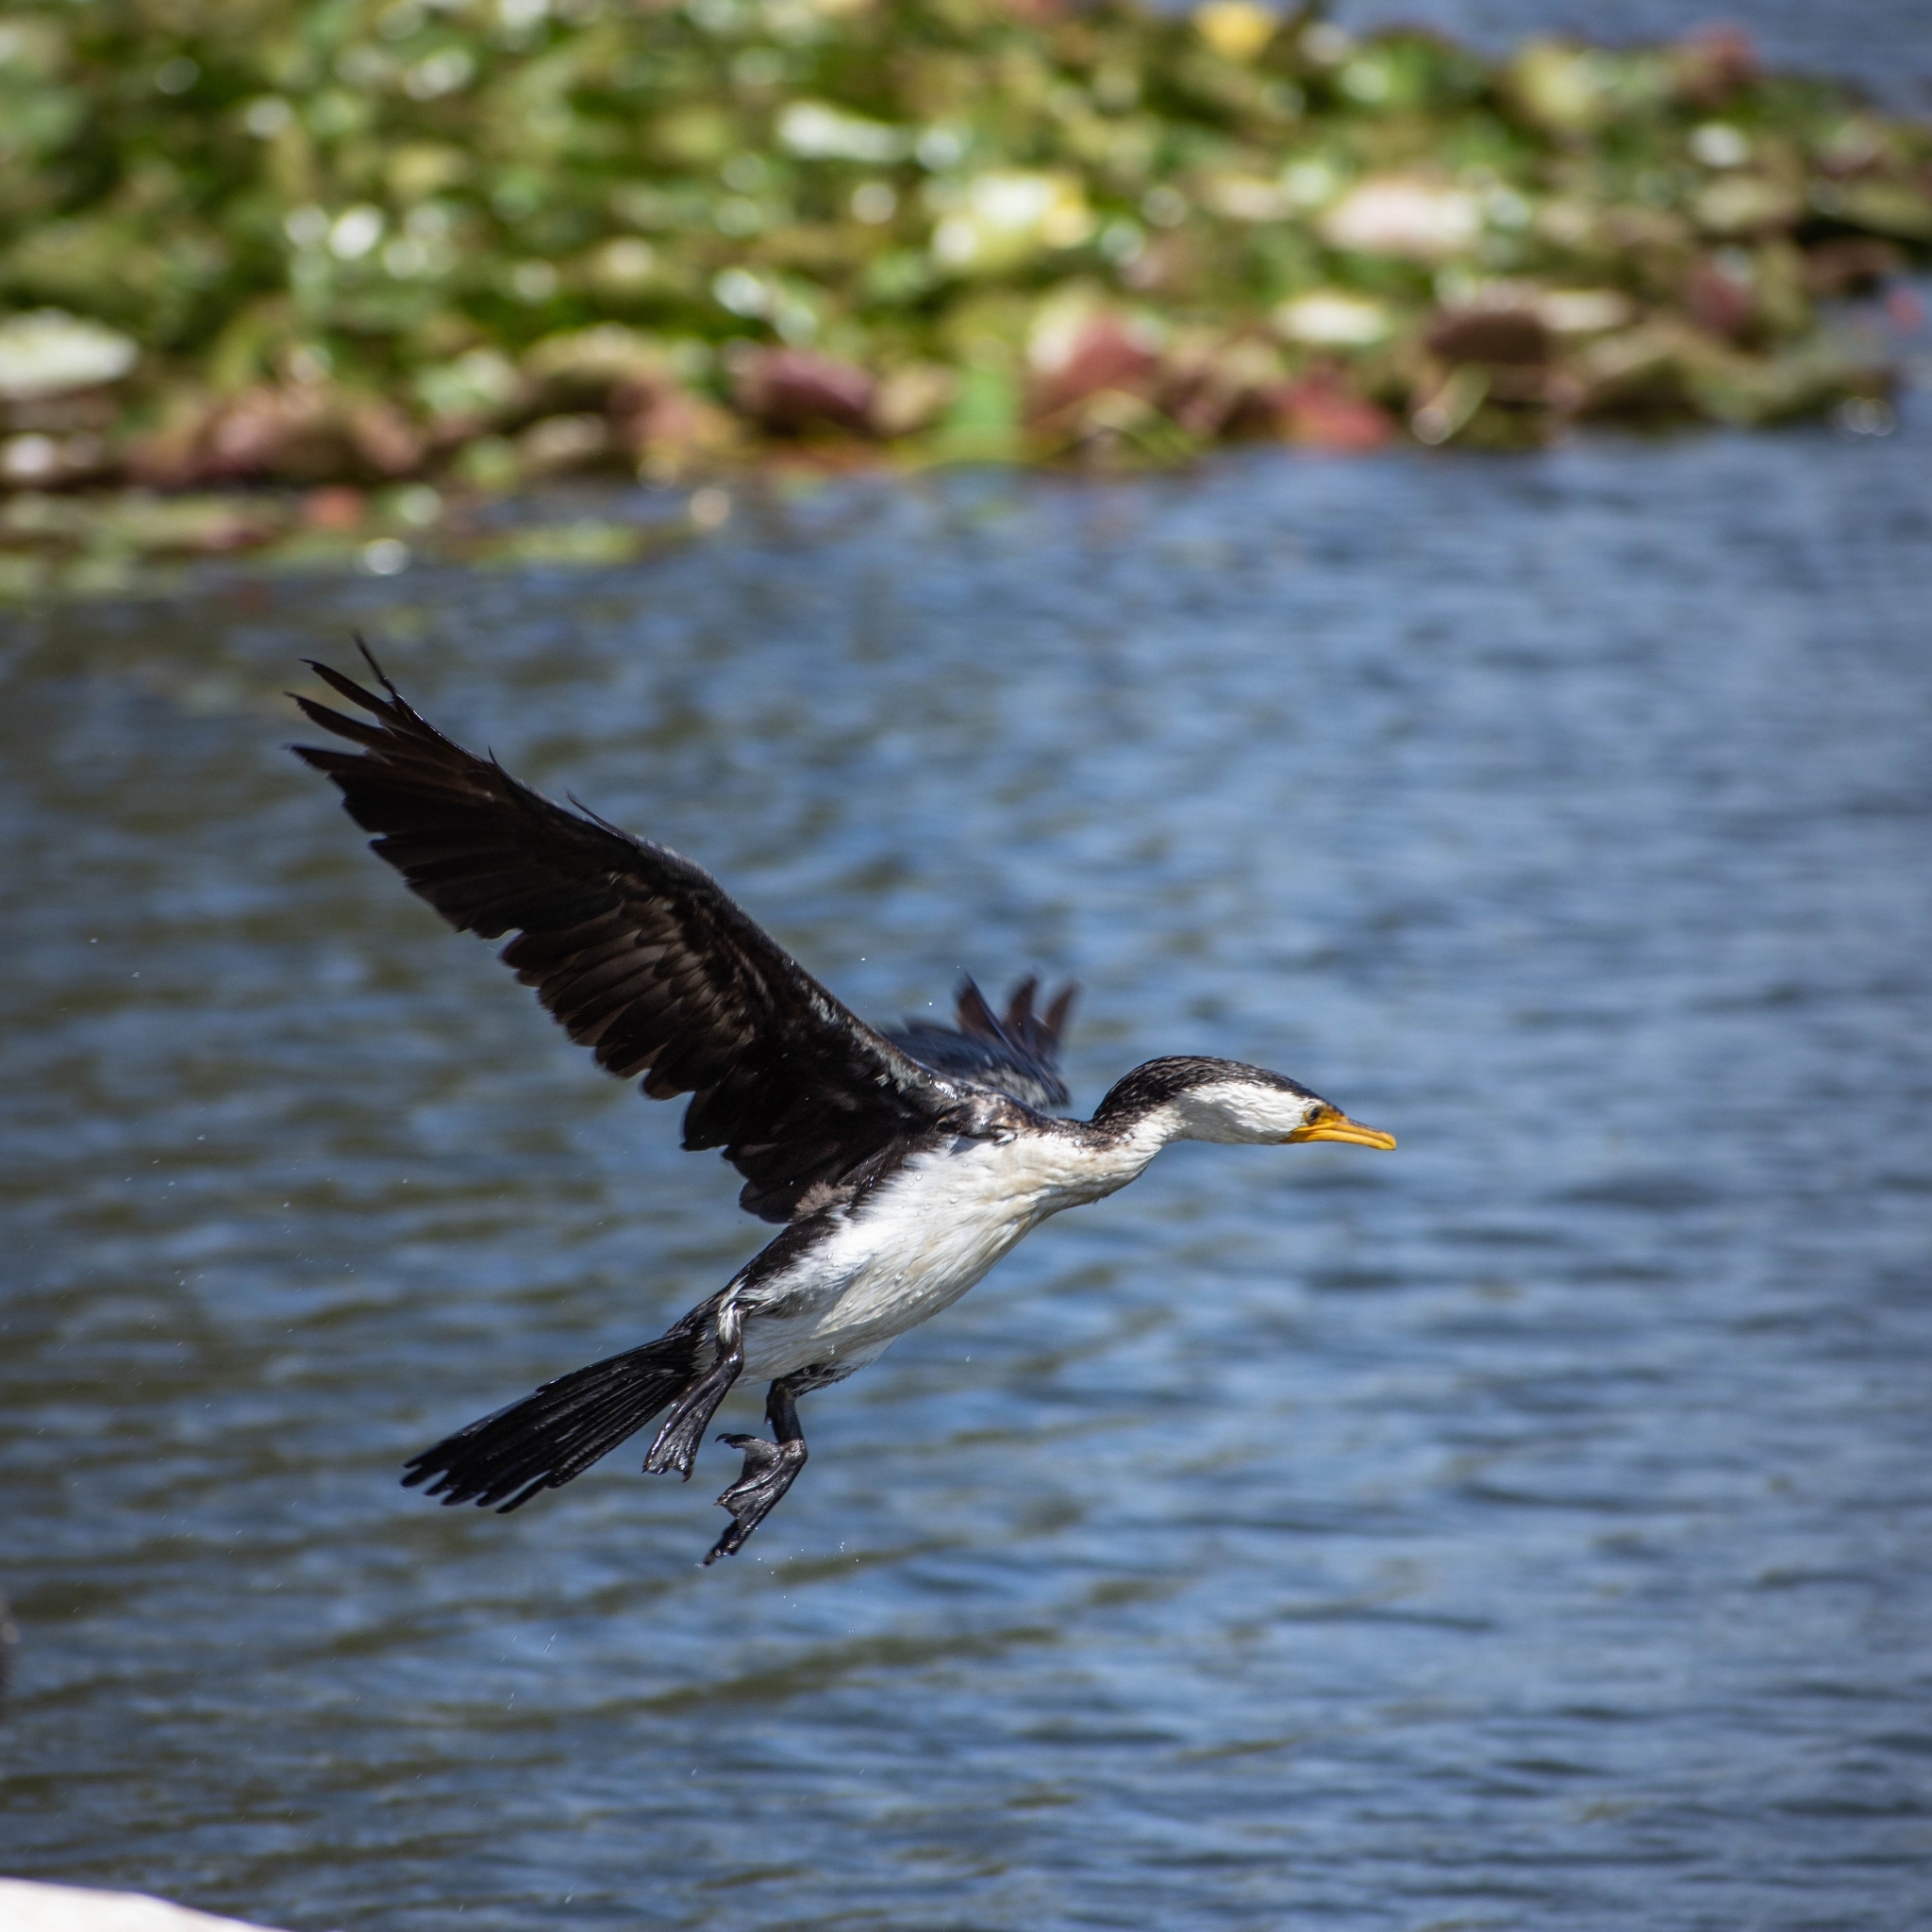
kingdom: Animalia
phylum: Chordata
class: Aves
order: Suliformes
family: Phalacrocoracidae
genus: Microcarbo
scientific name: Microcarbo melanoleucos
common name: Little pied cormorant
